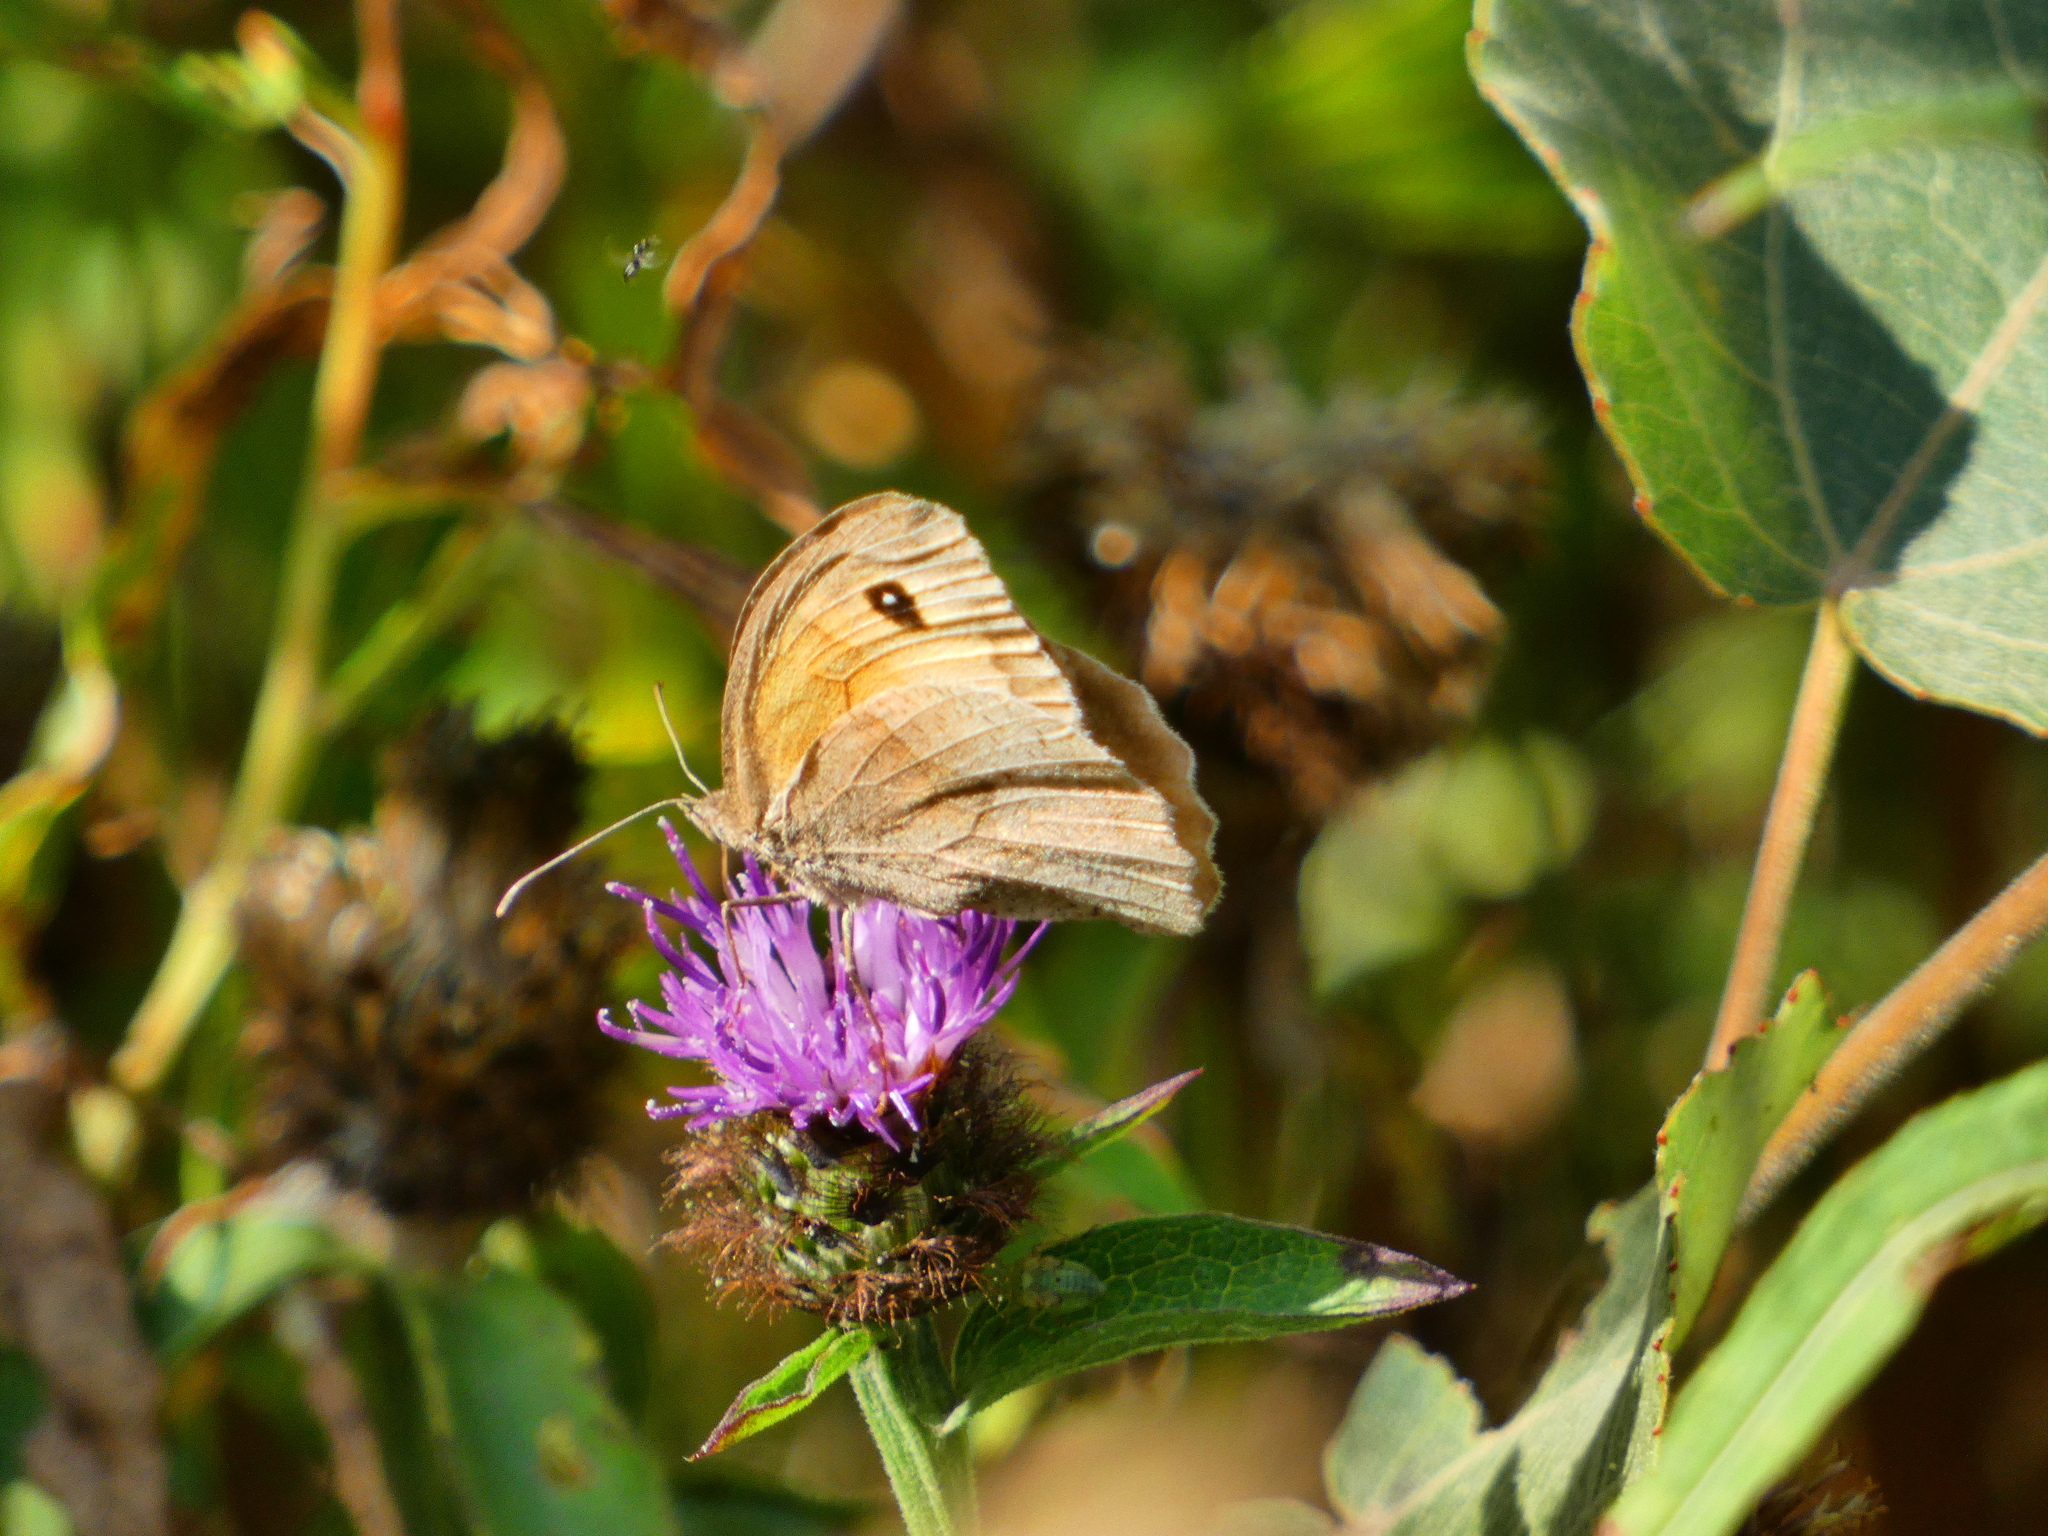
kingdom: Animalia
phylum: Arthropoda
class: Insecta
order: Lepidoptera
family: Nymphalidae
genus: Maniola
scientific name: Maniola jurtina
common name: Meadow brown
